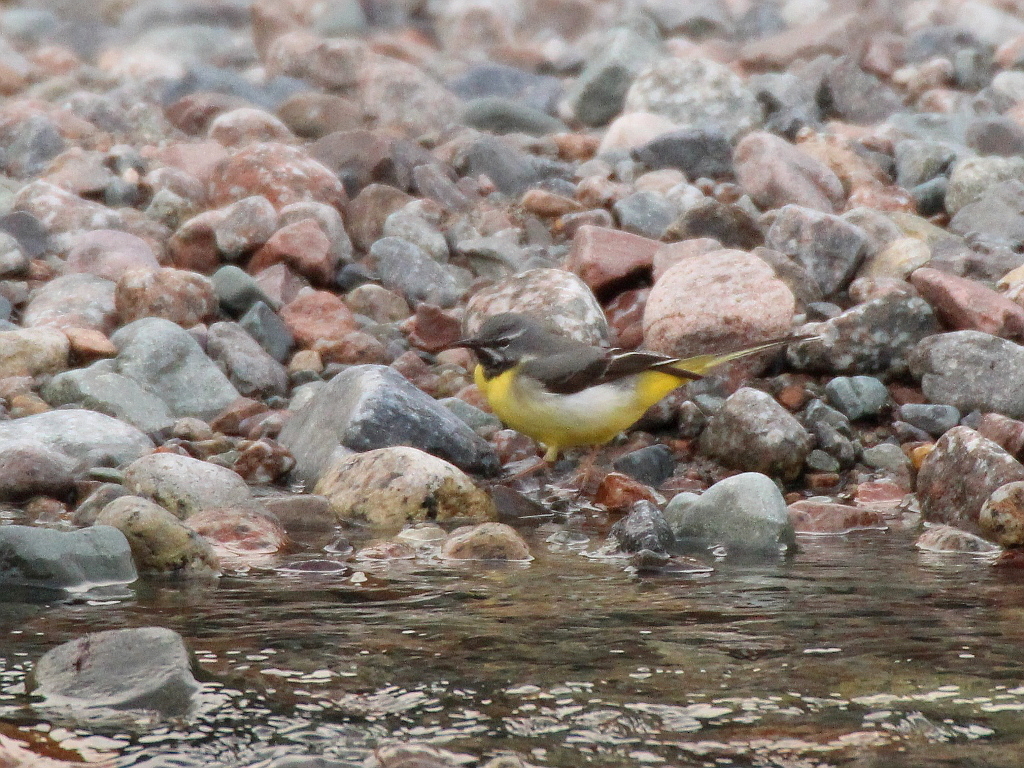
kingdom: Animalia
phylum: Chordata
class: Aves
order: Passeriformes
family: Motacillidae
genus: Motacilla
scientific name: Motacilla cinerea
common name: Grey wagtail
